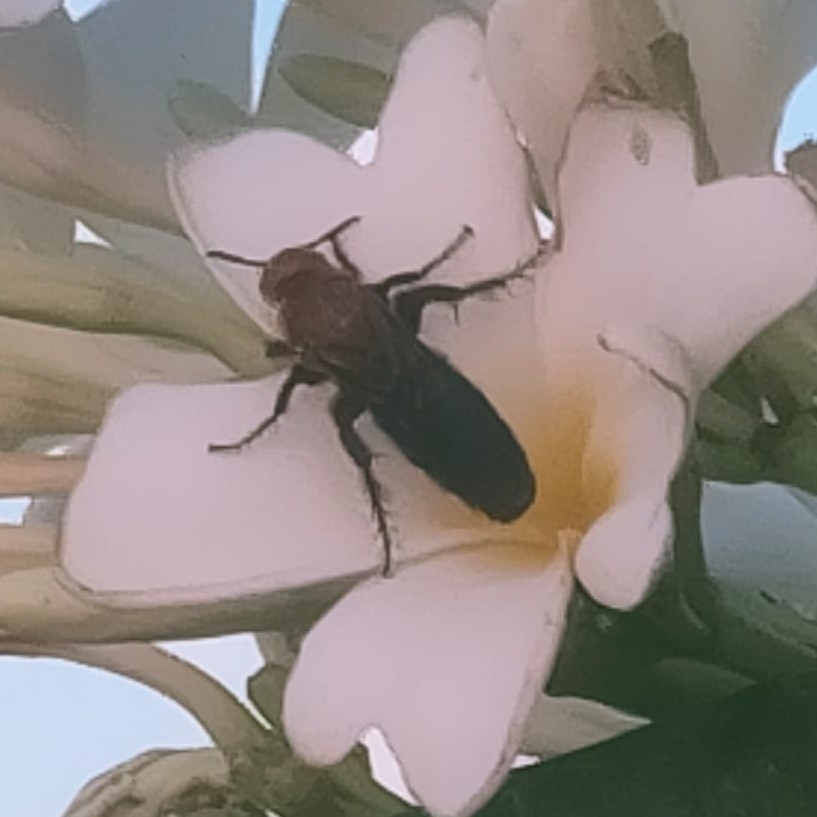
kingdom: Animalia
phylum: Arthropoda
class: Insecta
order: Hymenoptera
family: Scoliidae
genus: Campsomeriella
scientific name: Campsomeriella thoracica
